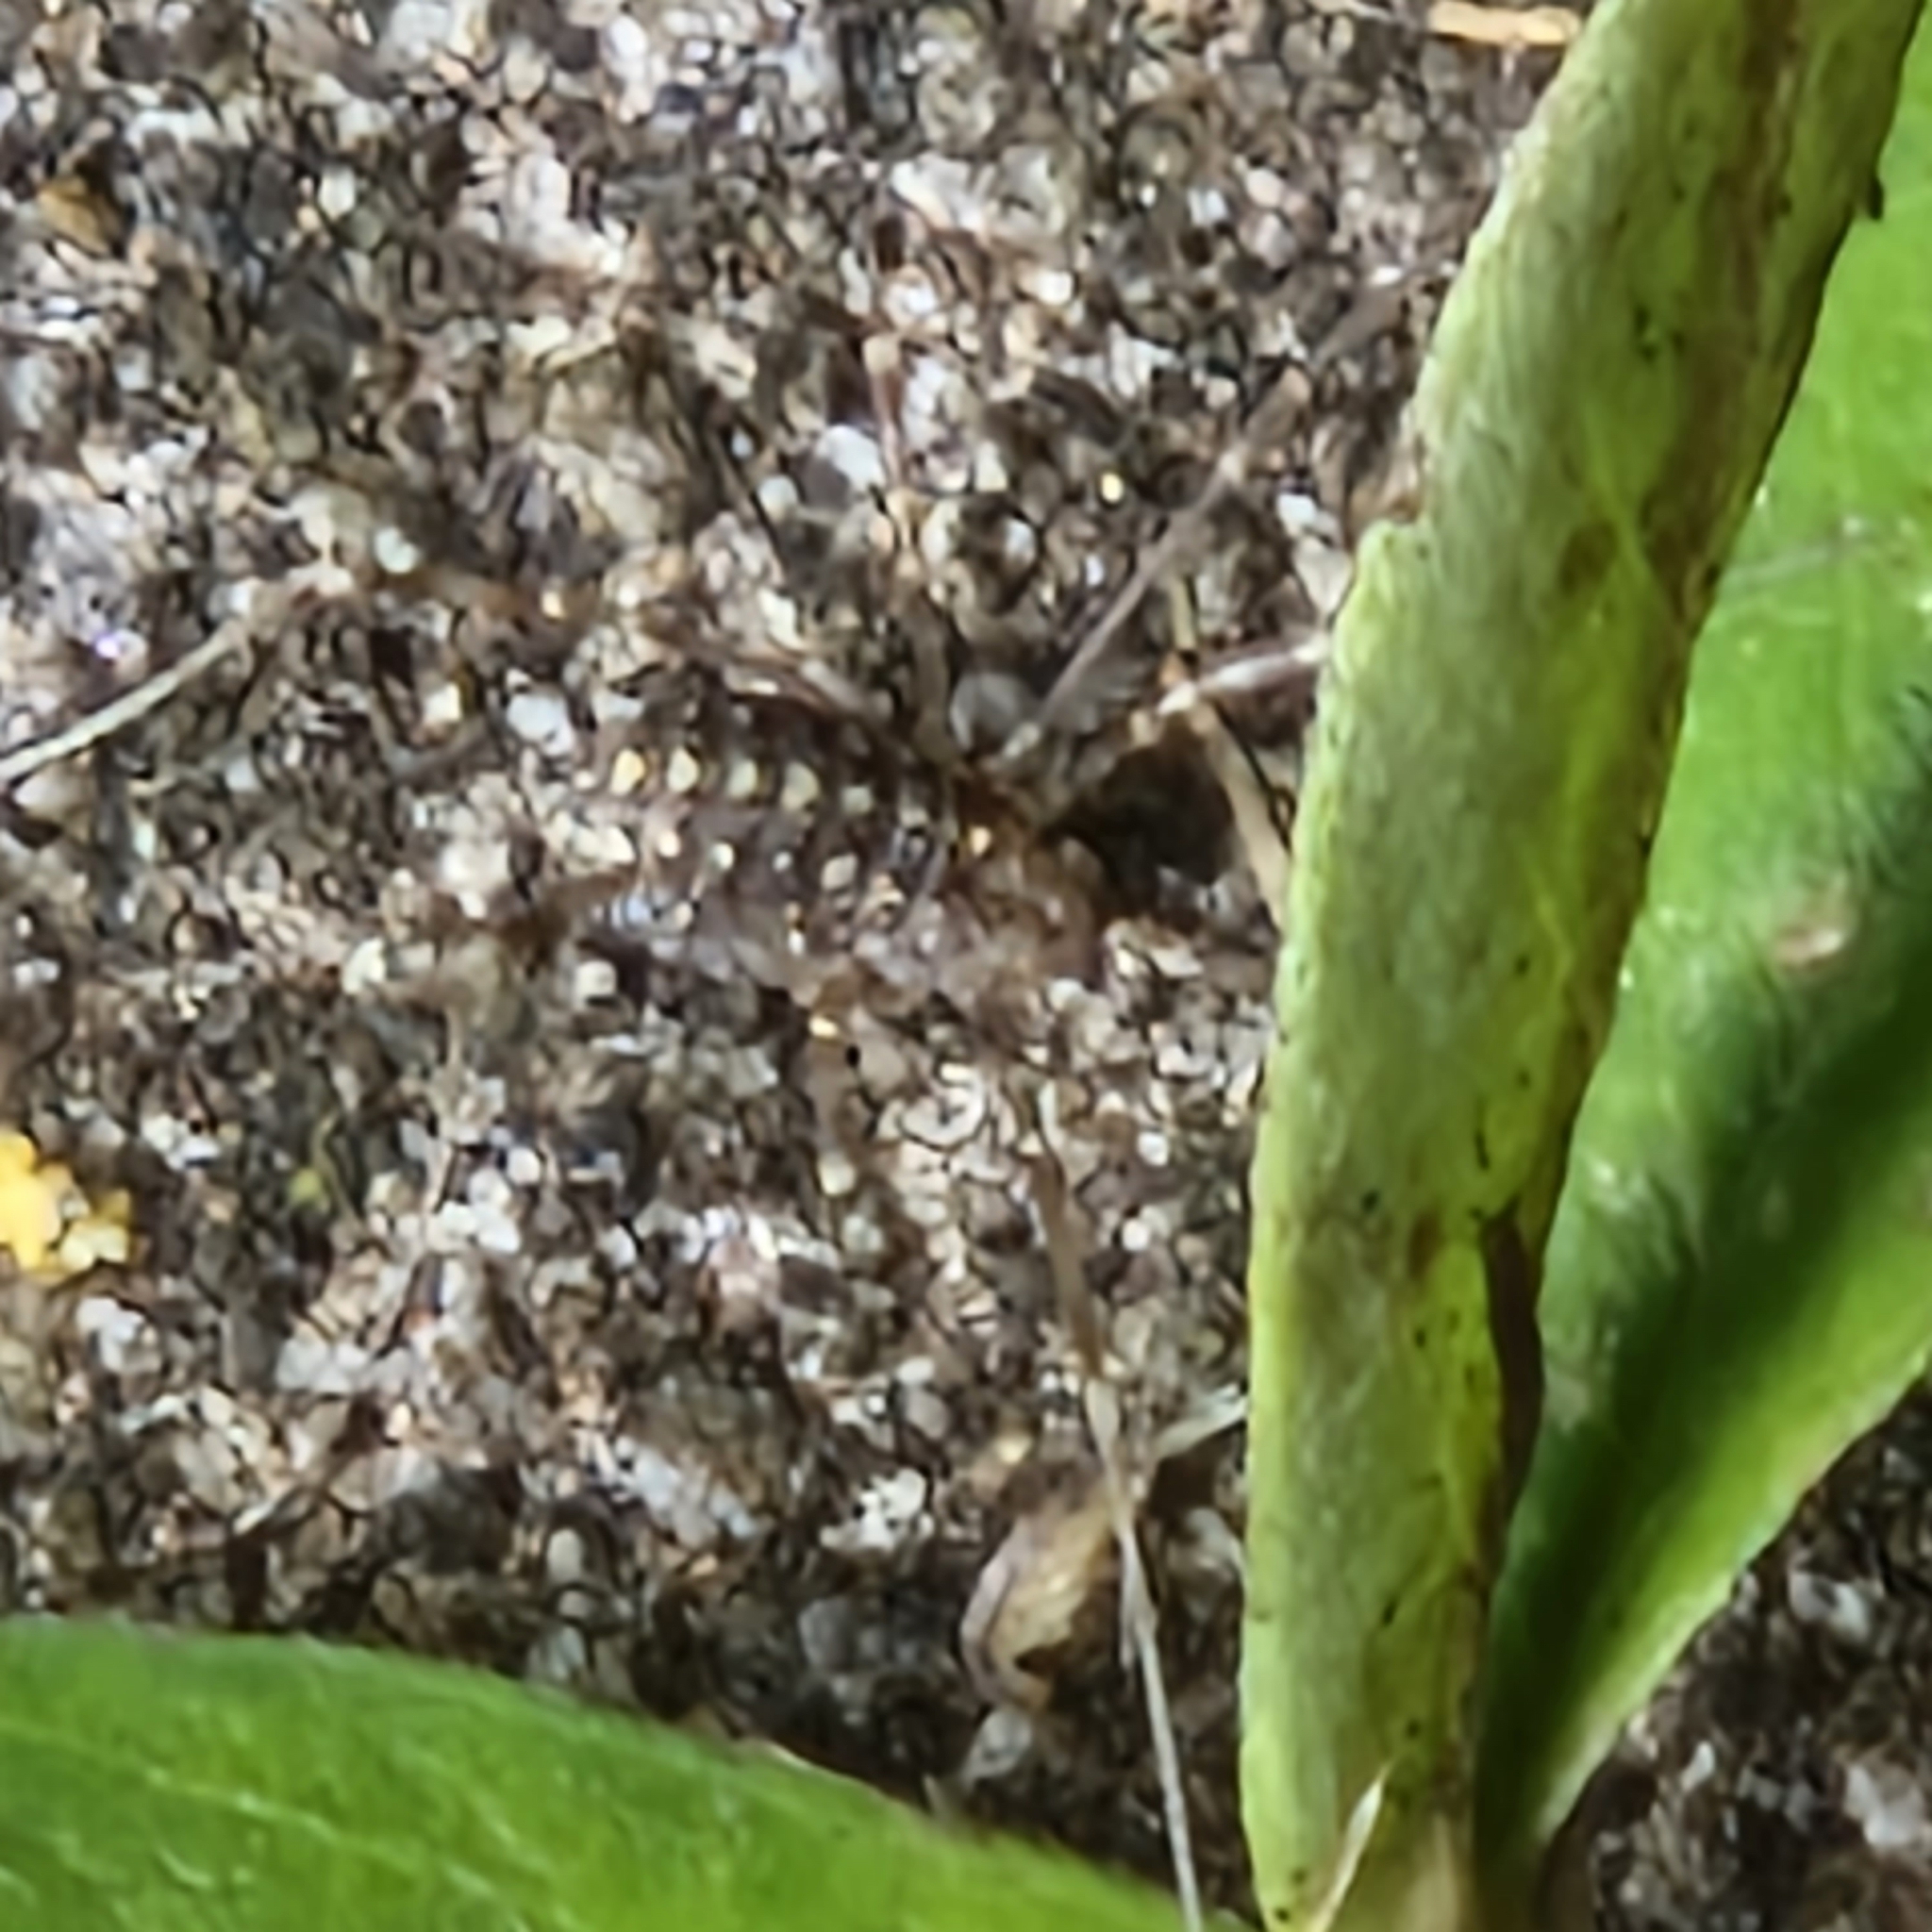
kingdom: Animalia
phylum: Arthropoda
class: Arachnida
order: Opiliones
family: Phalangiidae
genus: Opilio
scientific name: Opilio saxatilis
